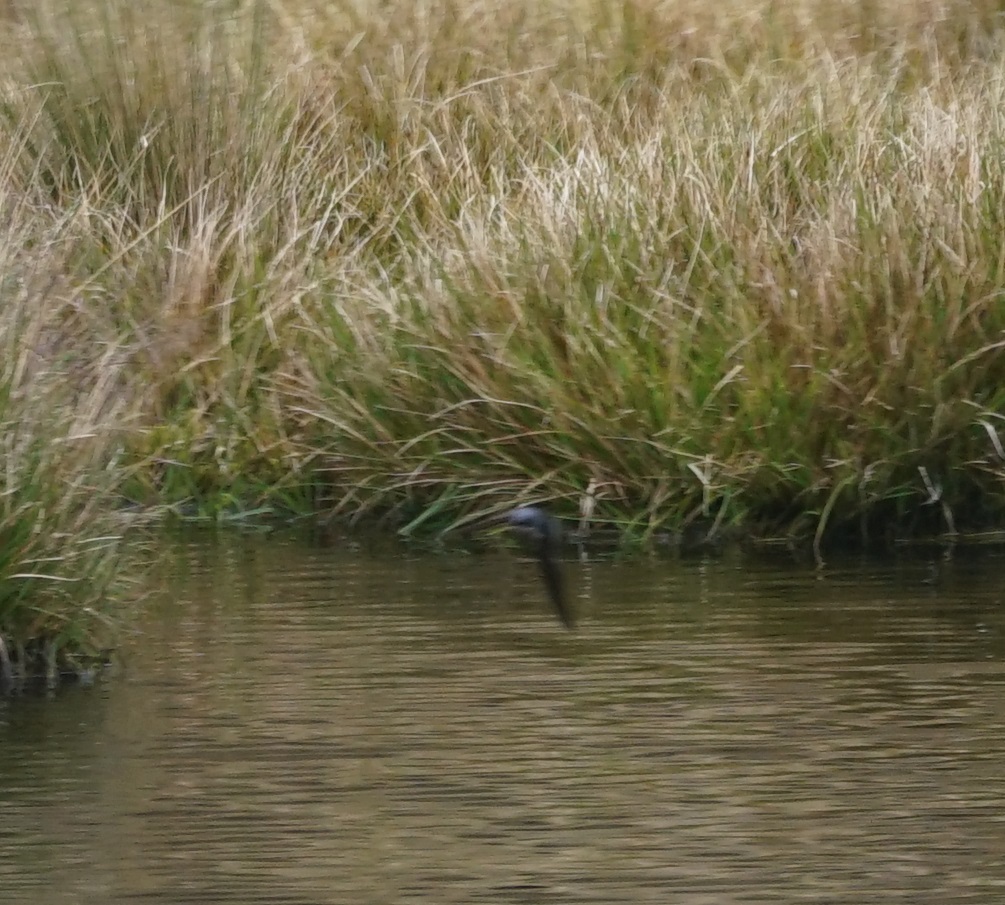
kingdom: Animalia
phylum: Chordata
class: Aves
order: Passeriformes
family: Hirundinidae
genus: Notiochelidon
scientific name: Notiochelidon murina
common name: Brown-bellied swallow
